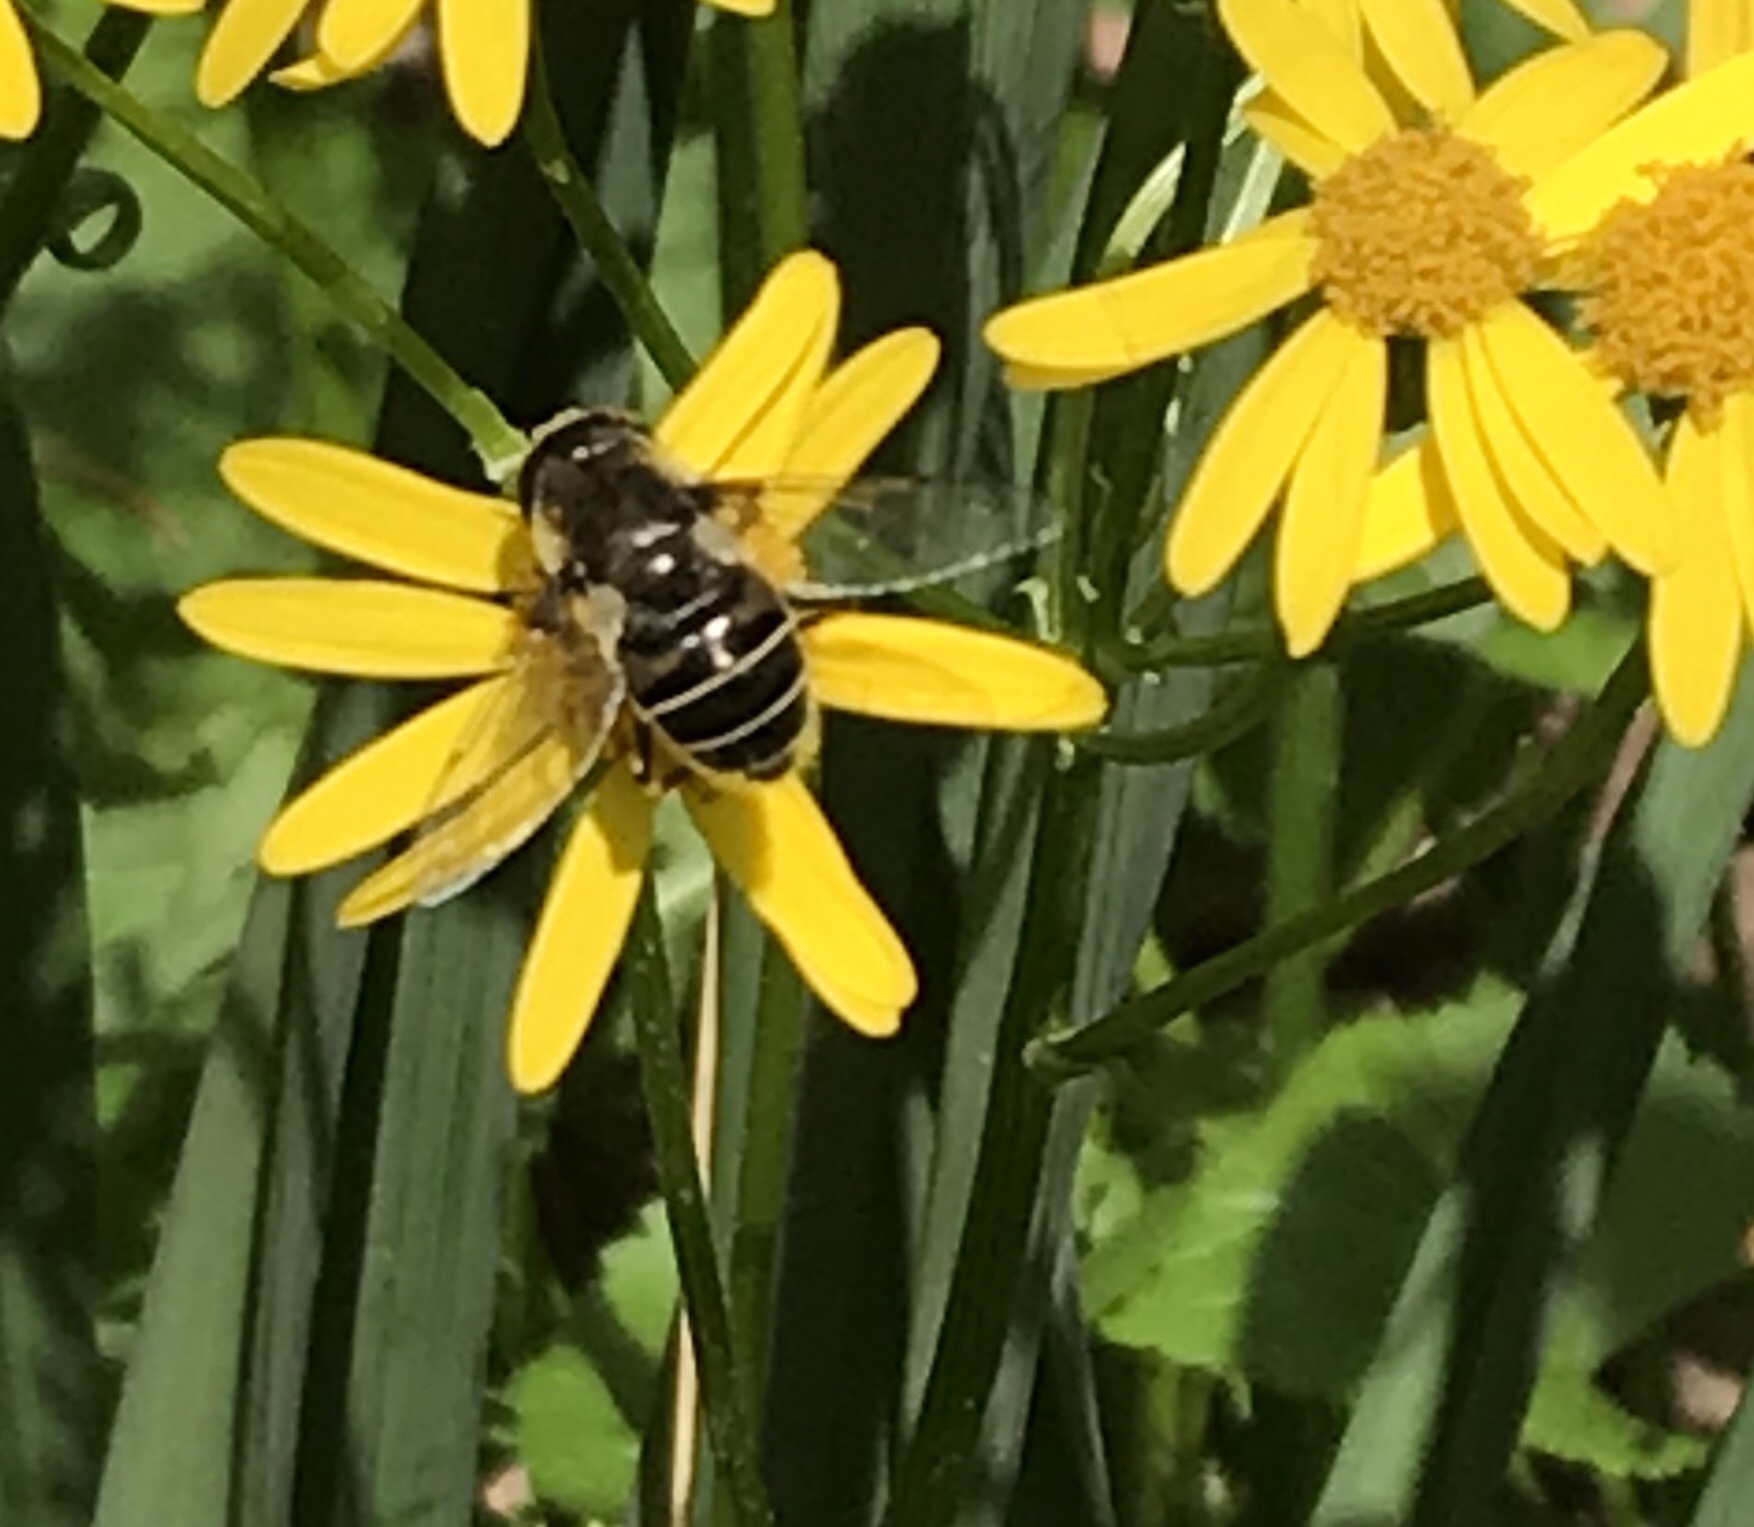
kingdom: Animalia
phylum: Arthropoda
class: Insecta
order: Diptera
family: Syrphidae
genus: Eoseristalis
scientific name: Eoseristalis
